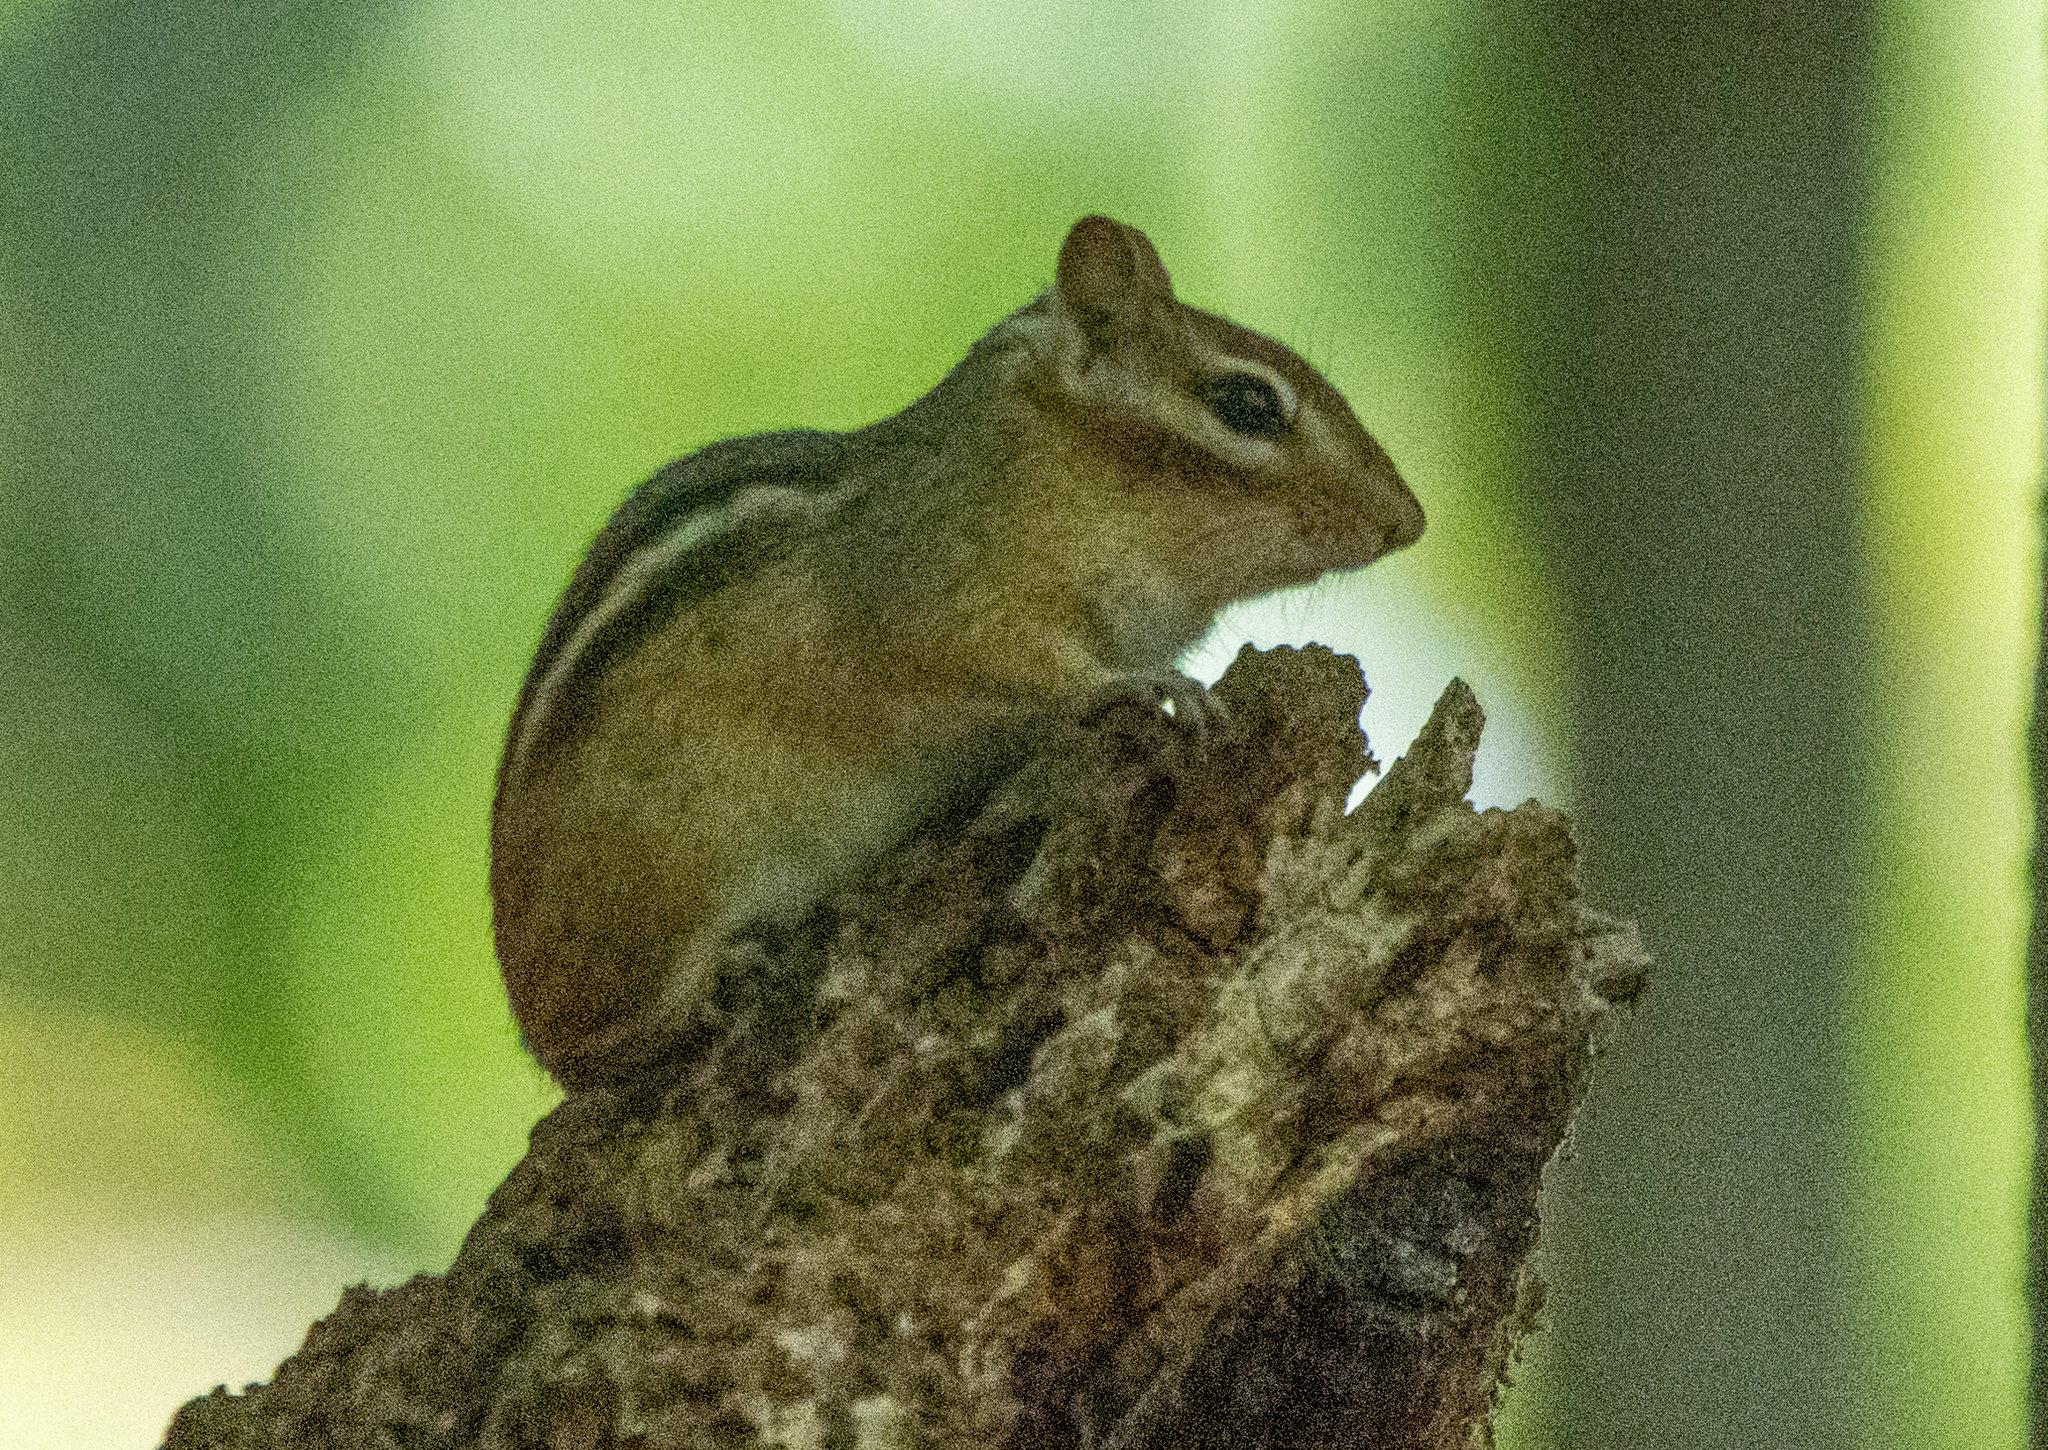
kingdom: Animalia
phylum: Chordata
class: Mammalia
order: Rodentia
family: Sciuridae
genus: Tamias
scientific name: Tamias striatus
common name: Eastern chipmunk
